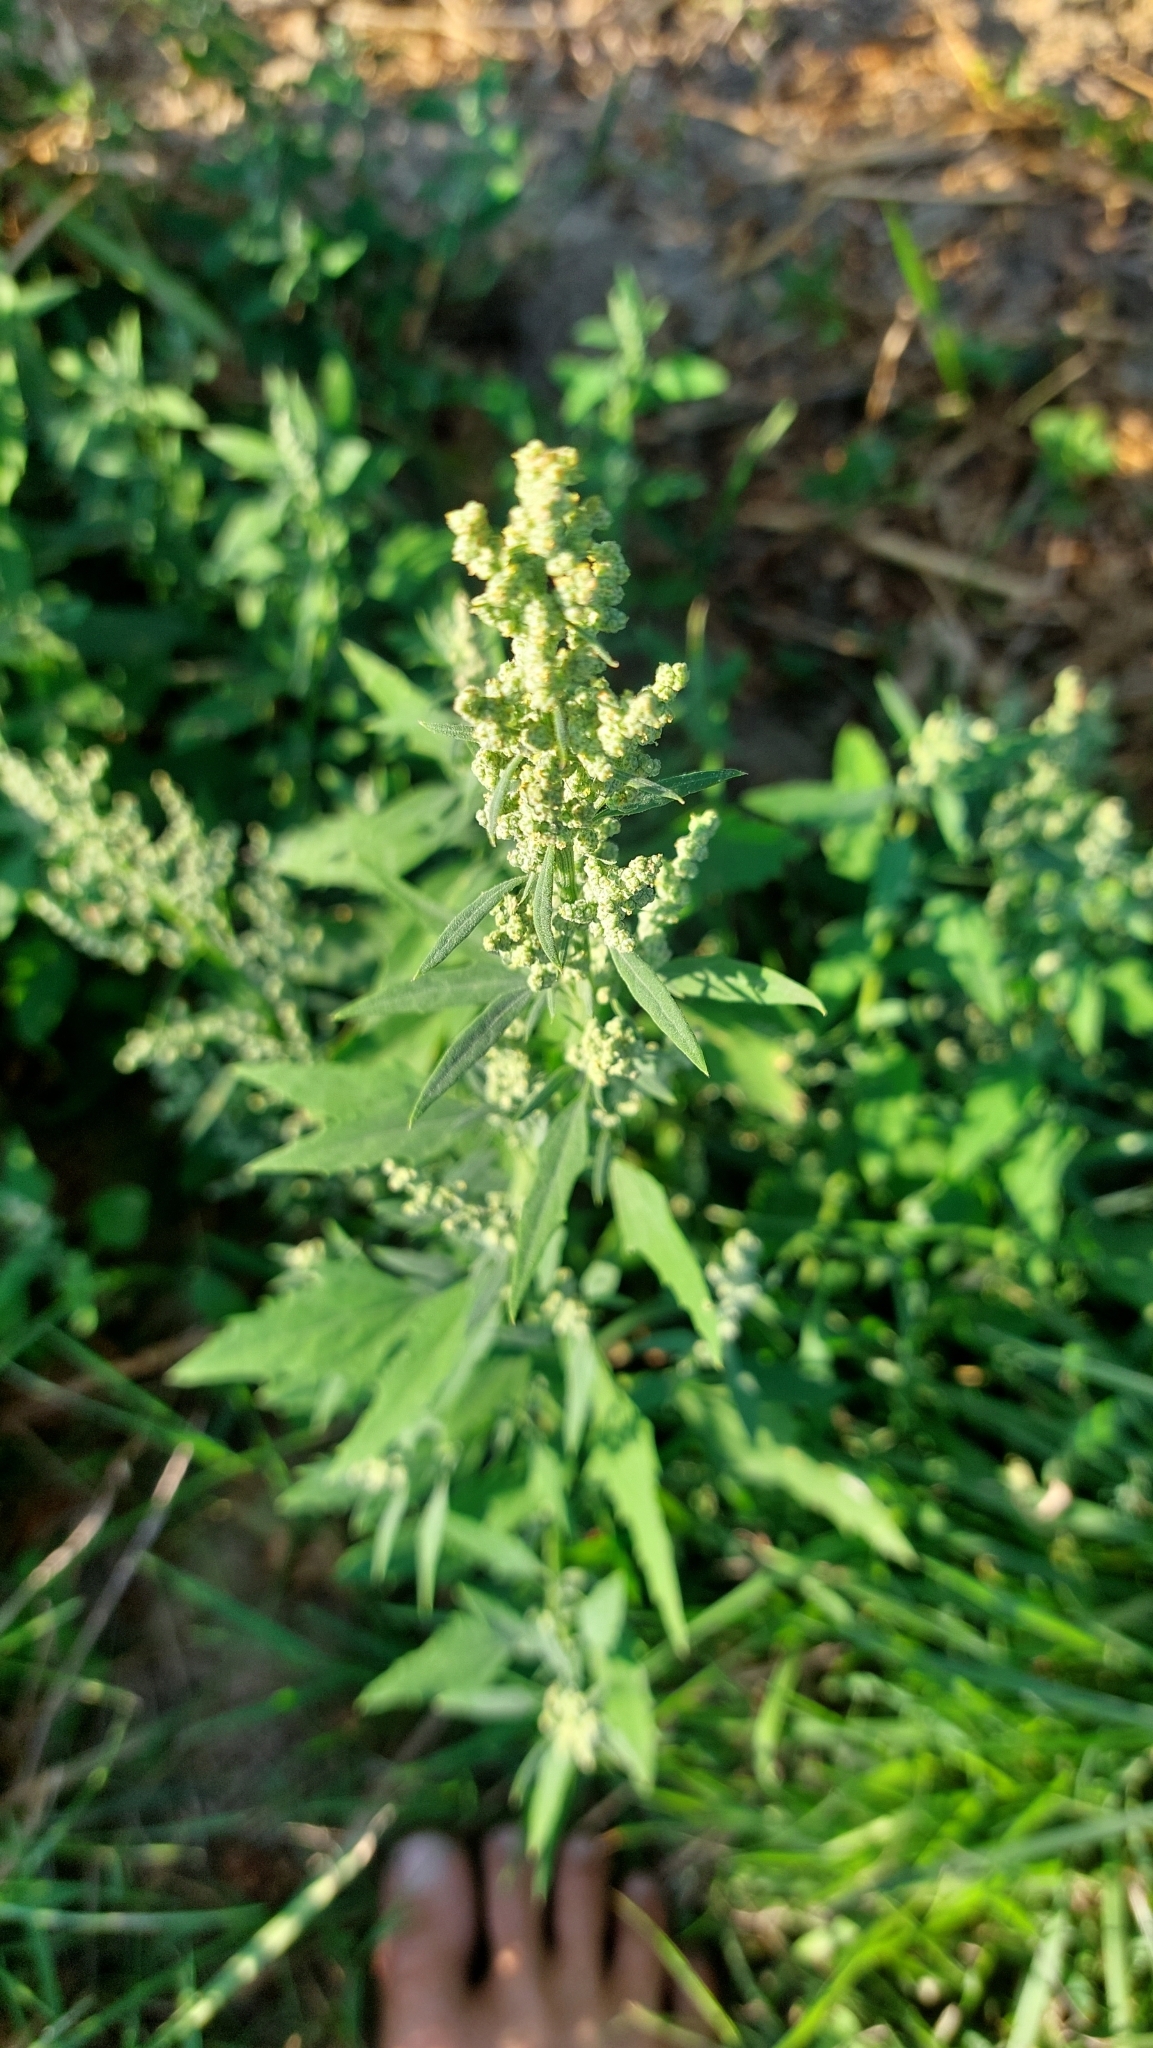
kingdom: Plantae
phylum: Tracheophyta
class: Magnoliopsida
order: Caryophyllales
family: Amaranthaceae
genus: Chenopodium
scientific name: Chenopodium album
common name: Fat-hen
